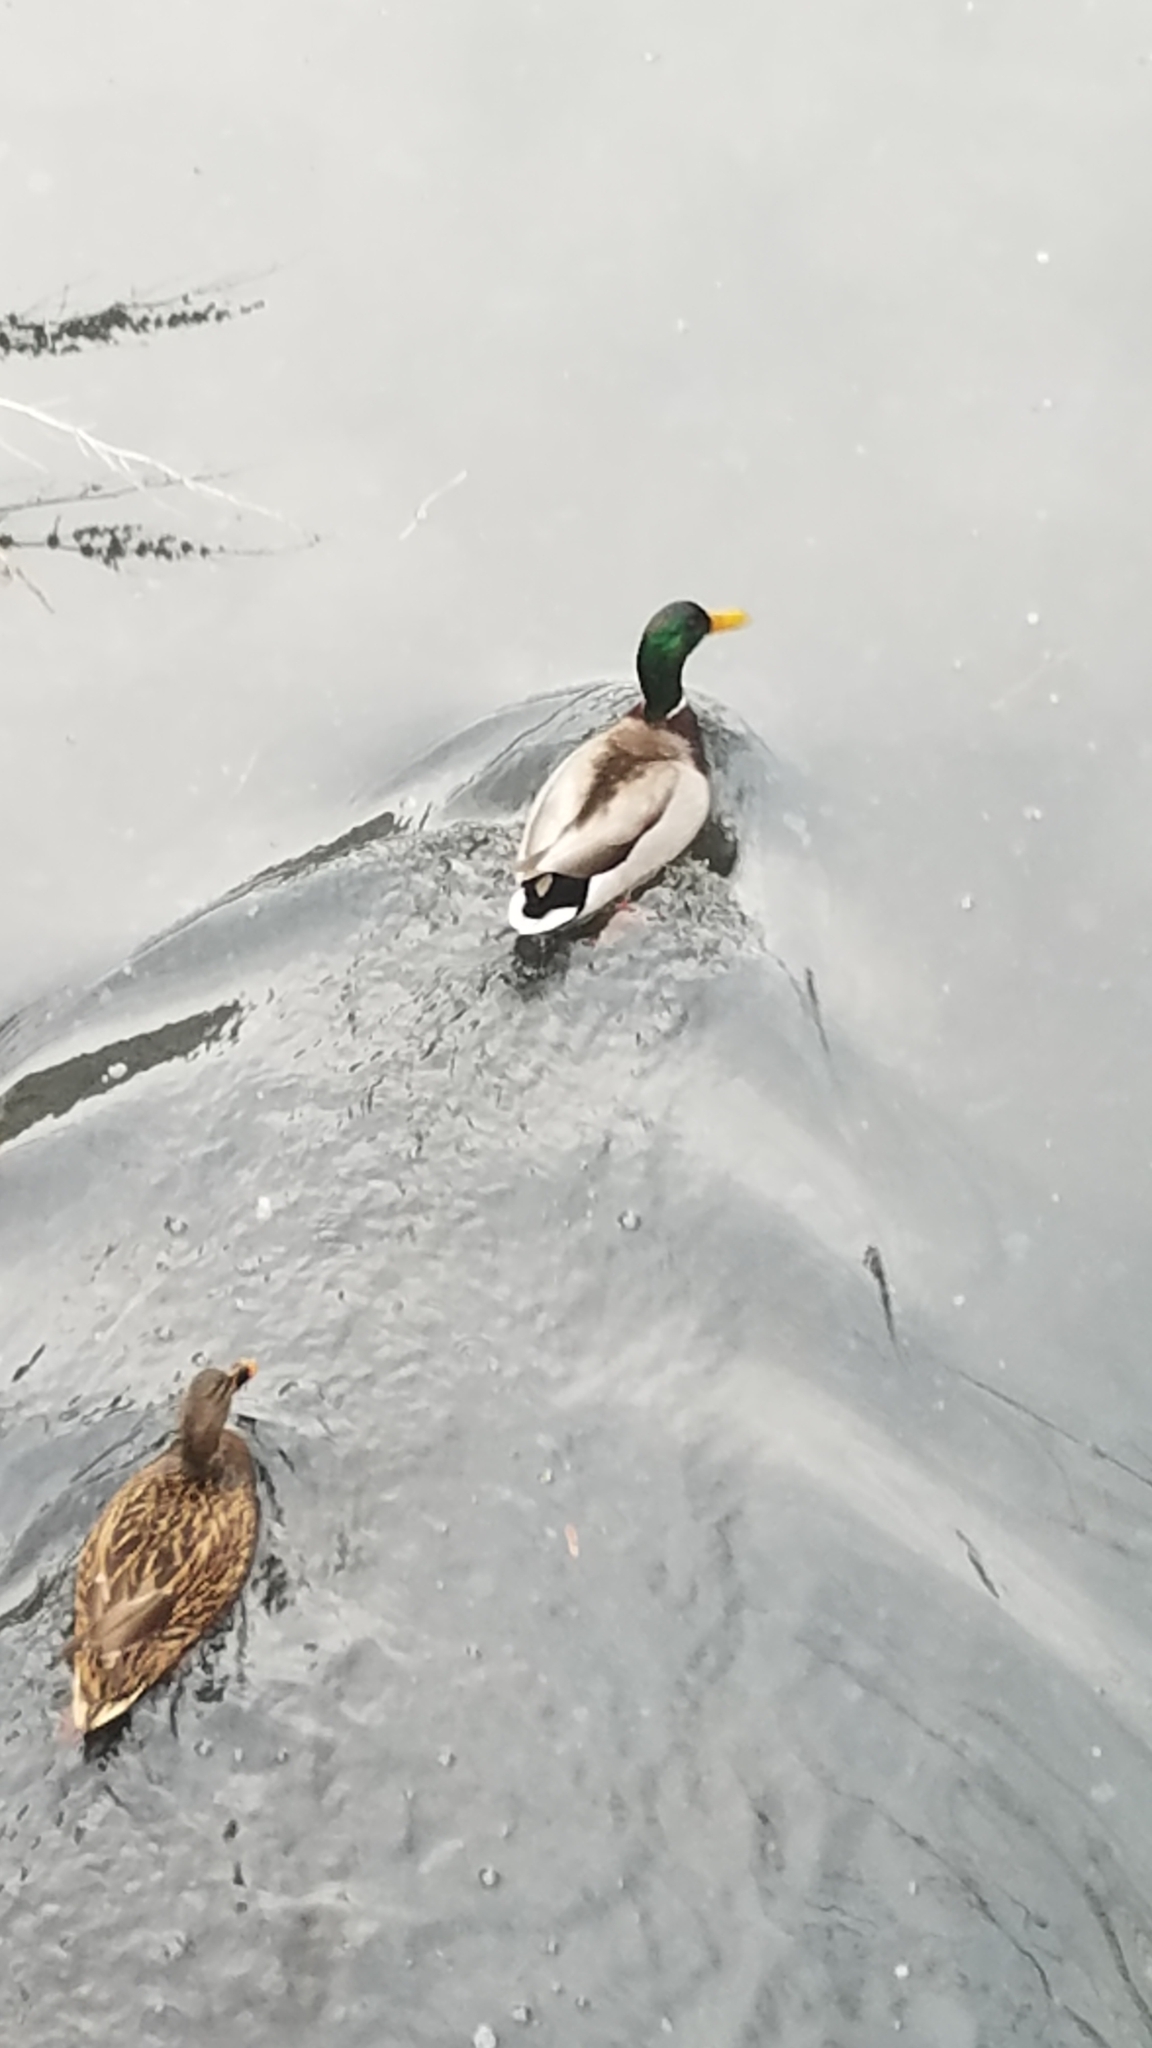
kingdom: Animalia
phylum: Chordata
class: Aves
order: Anseriformes
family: Anatidae
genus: Anas
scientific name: Anas platyrhynchos
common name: Mallard
